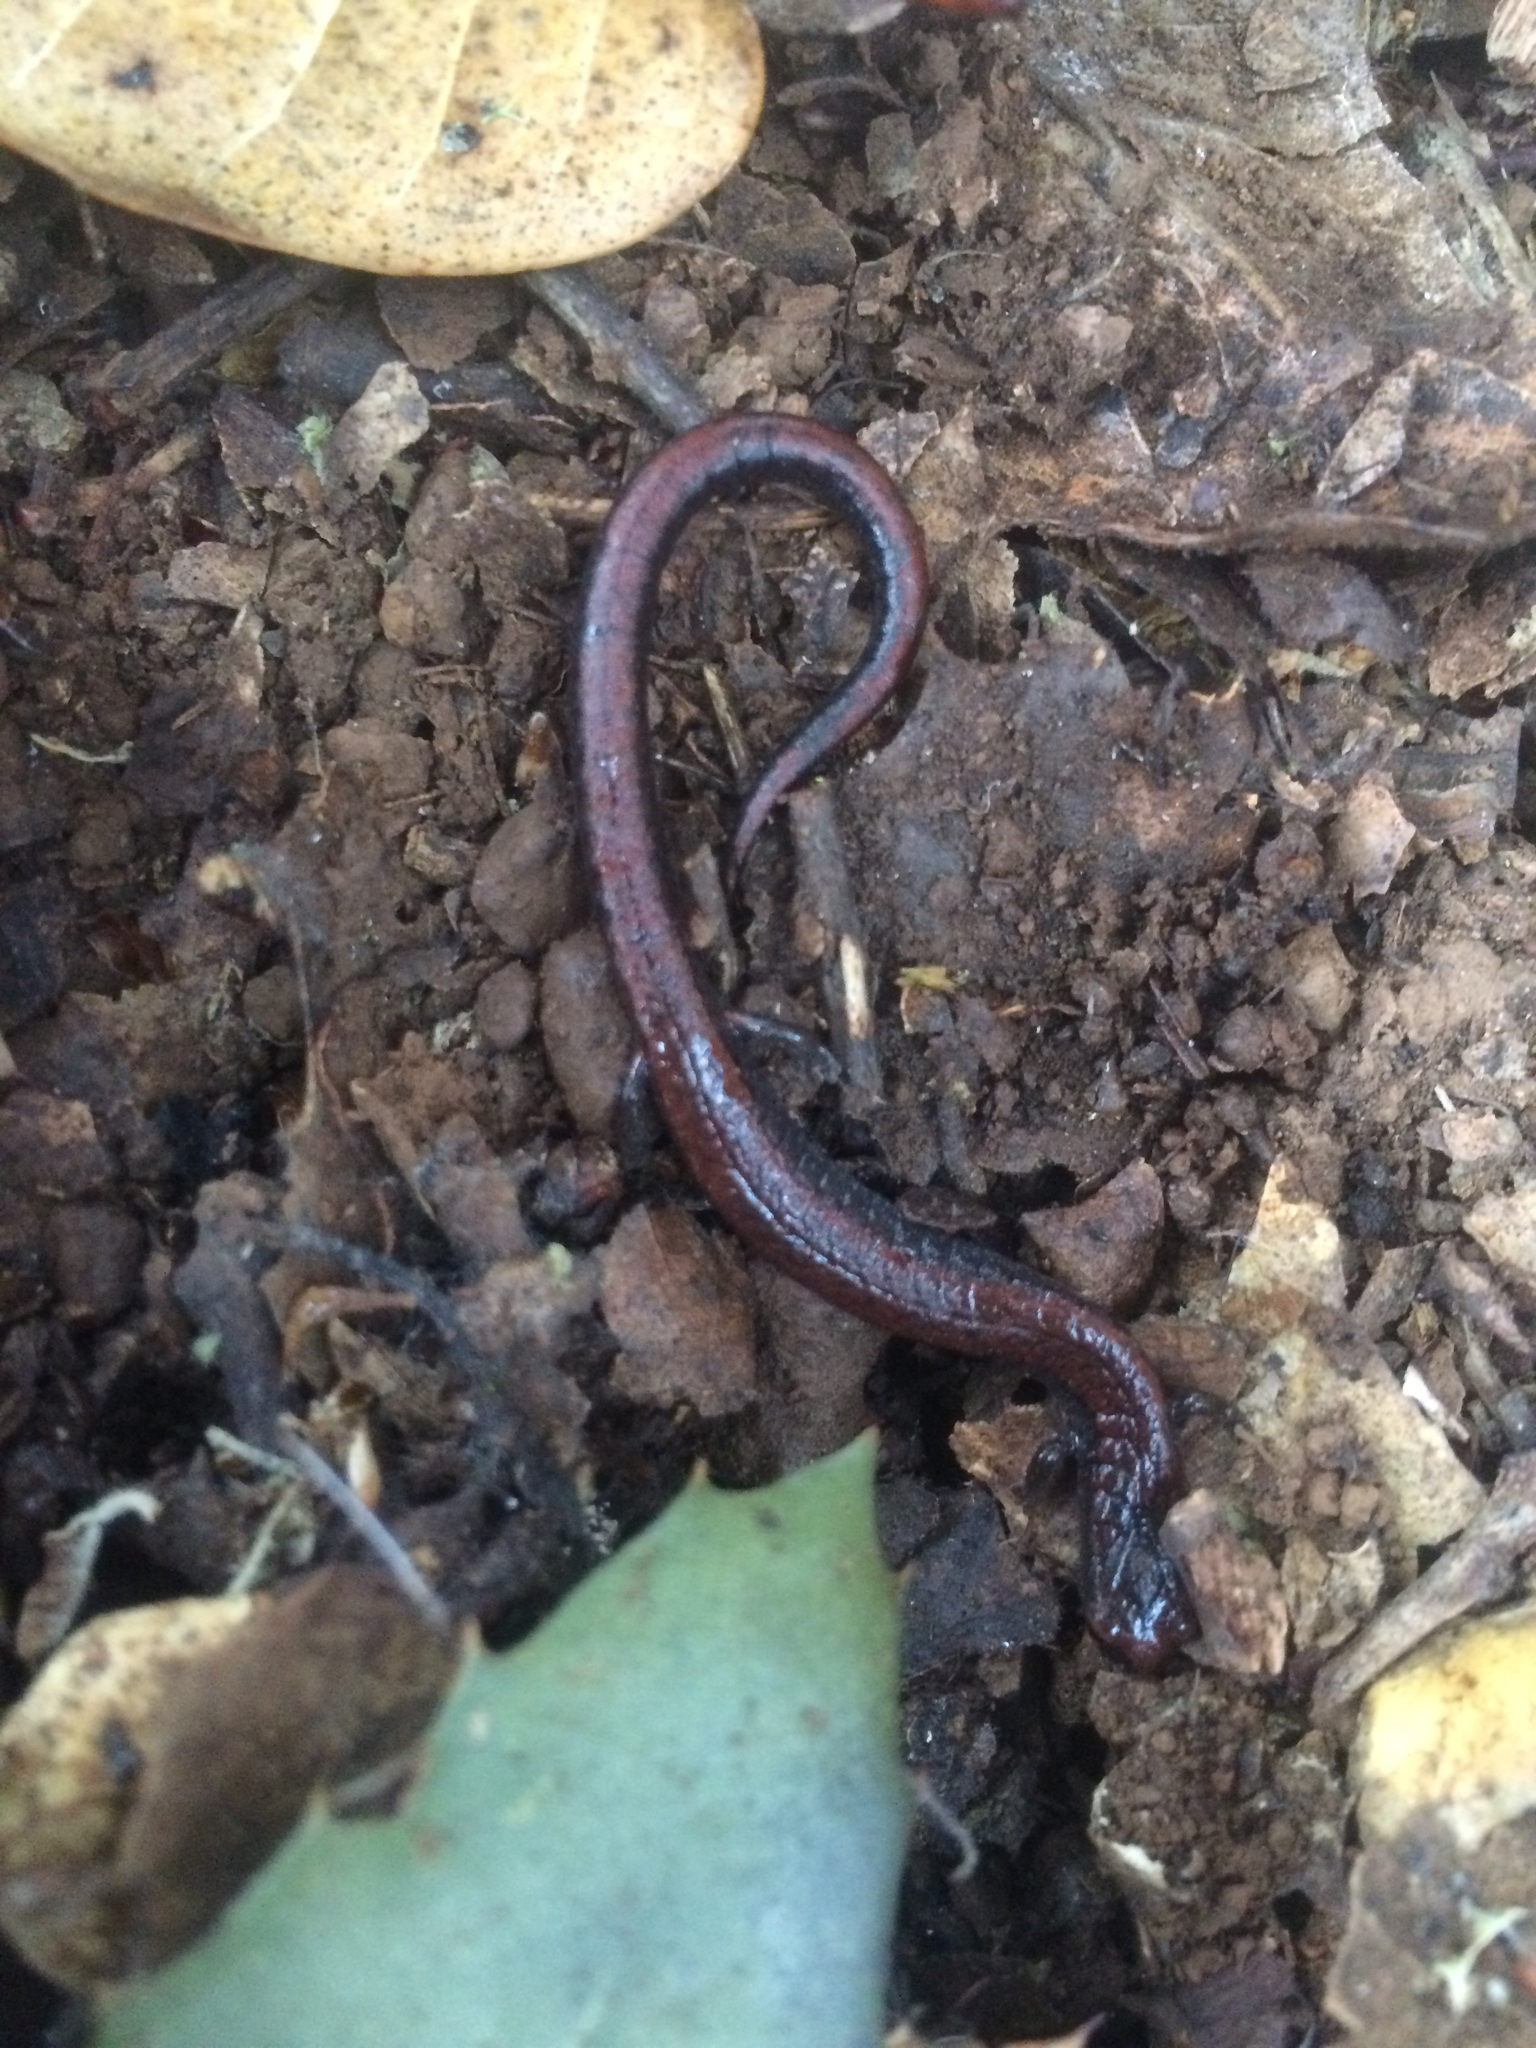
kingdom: Animalia
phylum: Chordata
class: Amphibia
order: Caudata
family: Plethodontidae
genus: Batrachoseps
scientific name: Batrachoseps attenuatus
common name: California slender salamander
